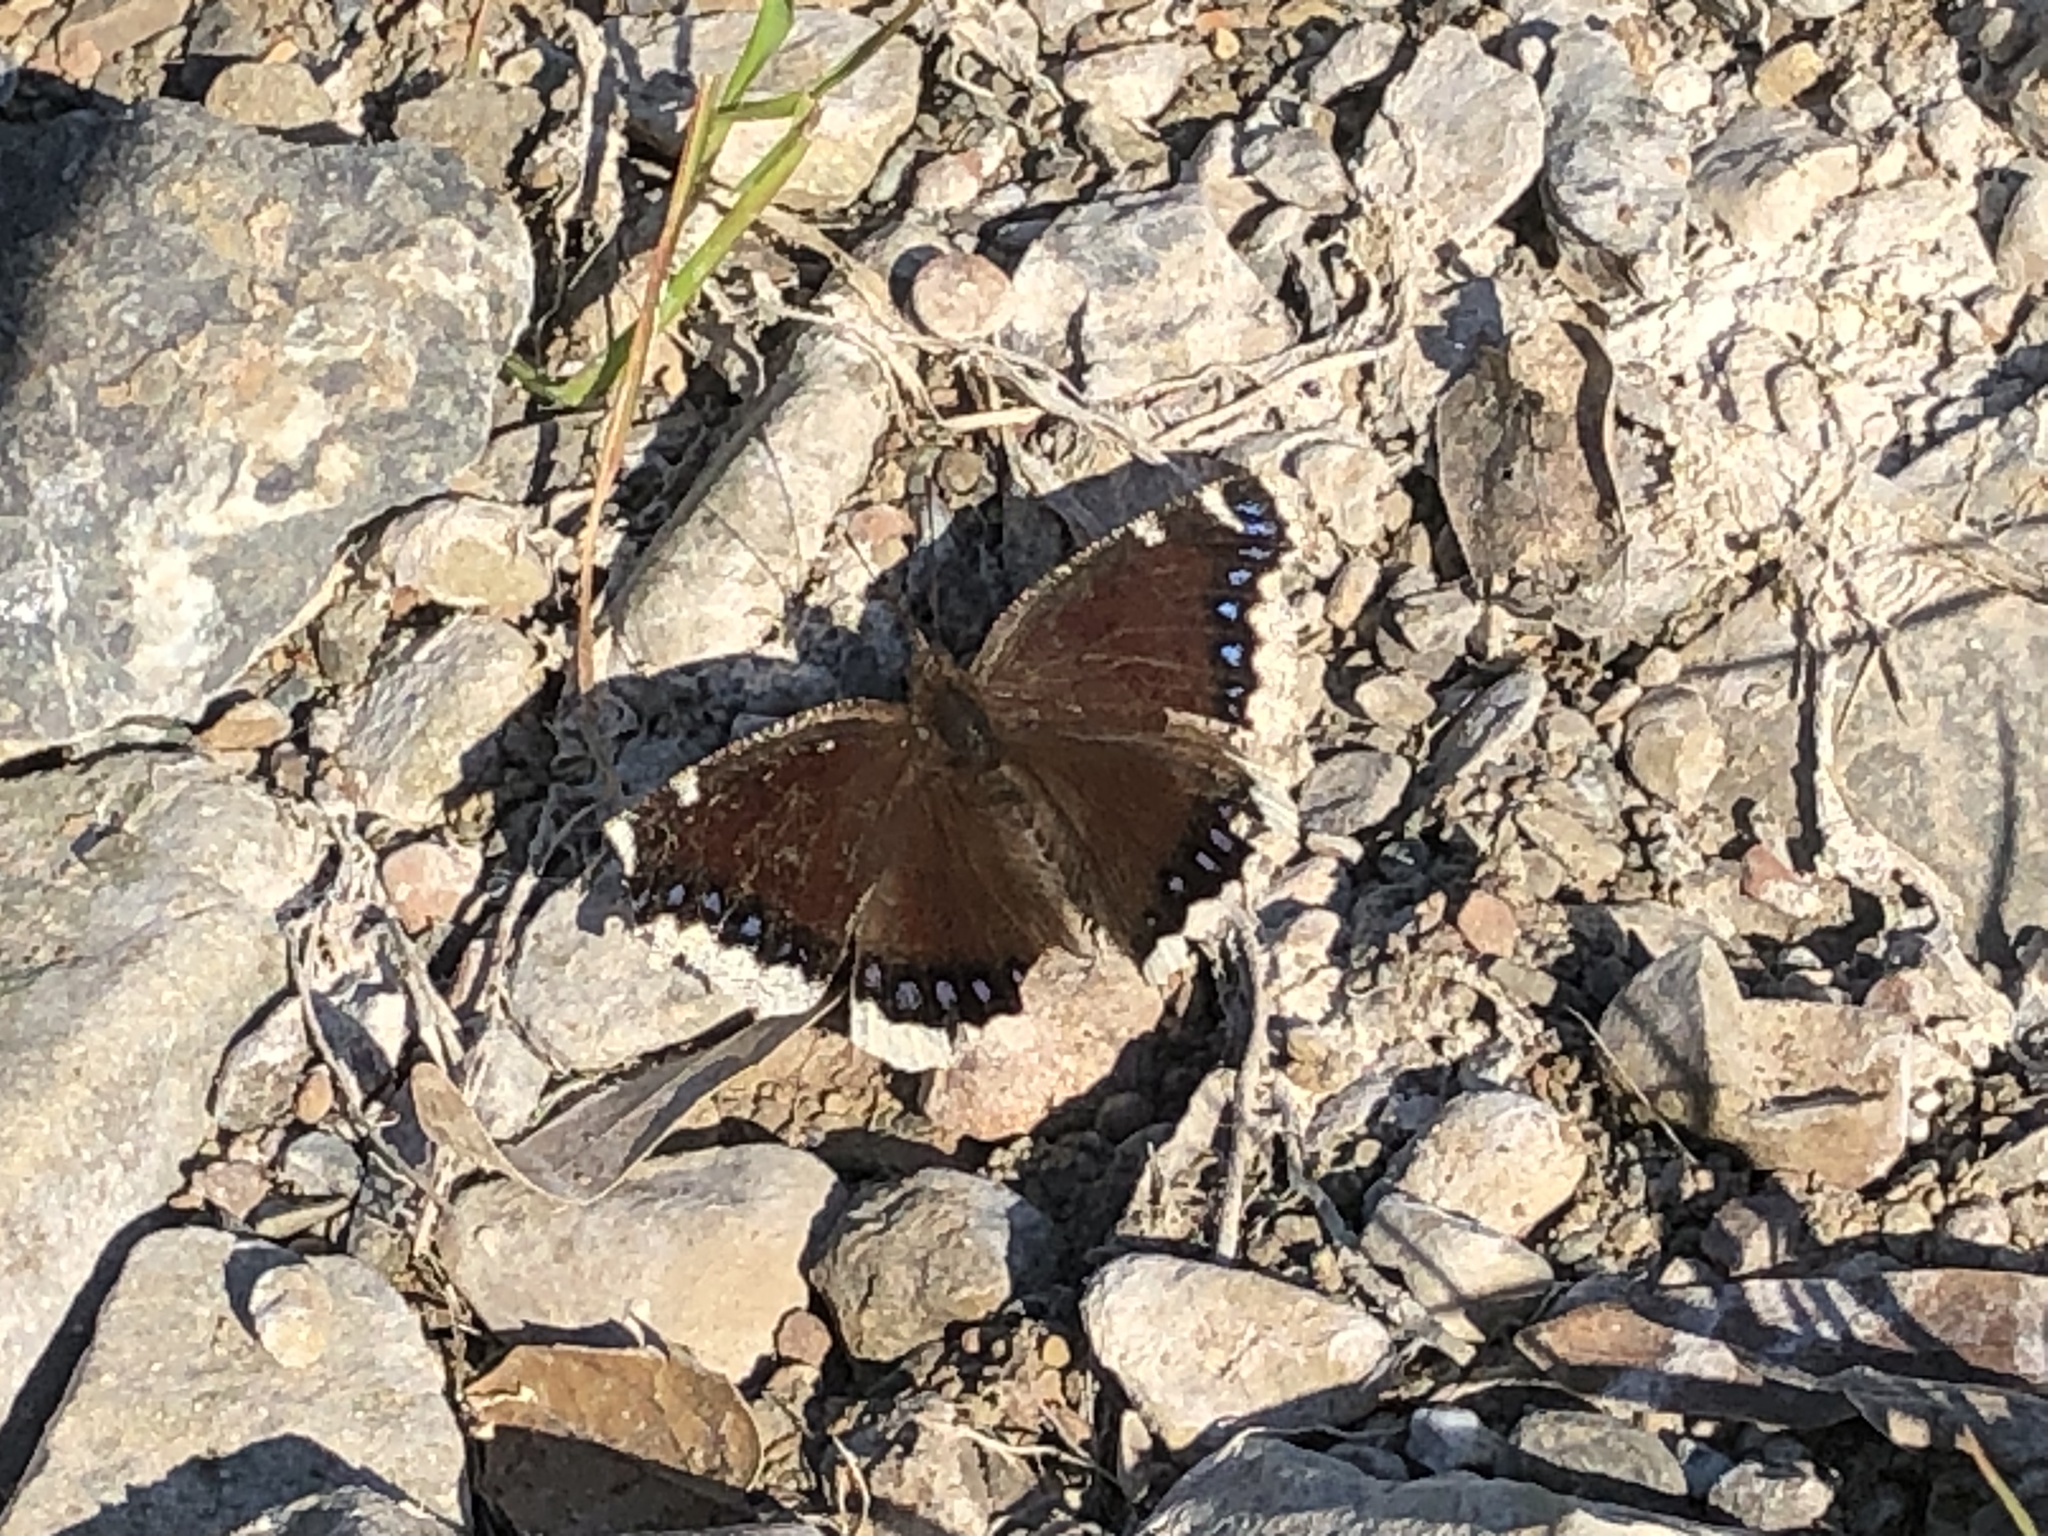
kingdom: Animalia
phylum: Arthropoda
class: Insecta
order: Lepidoptera
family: Nymphalidae
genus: Nymphalis
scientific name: Nymphalis antiopa
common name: Camberwell beauty
